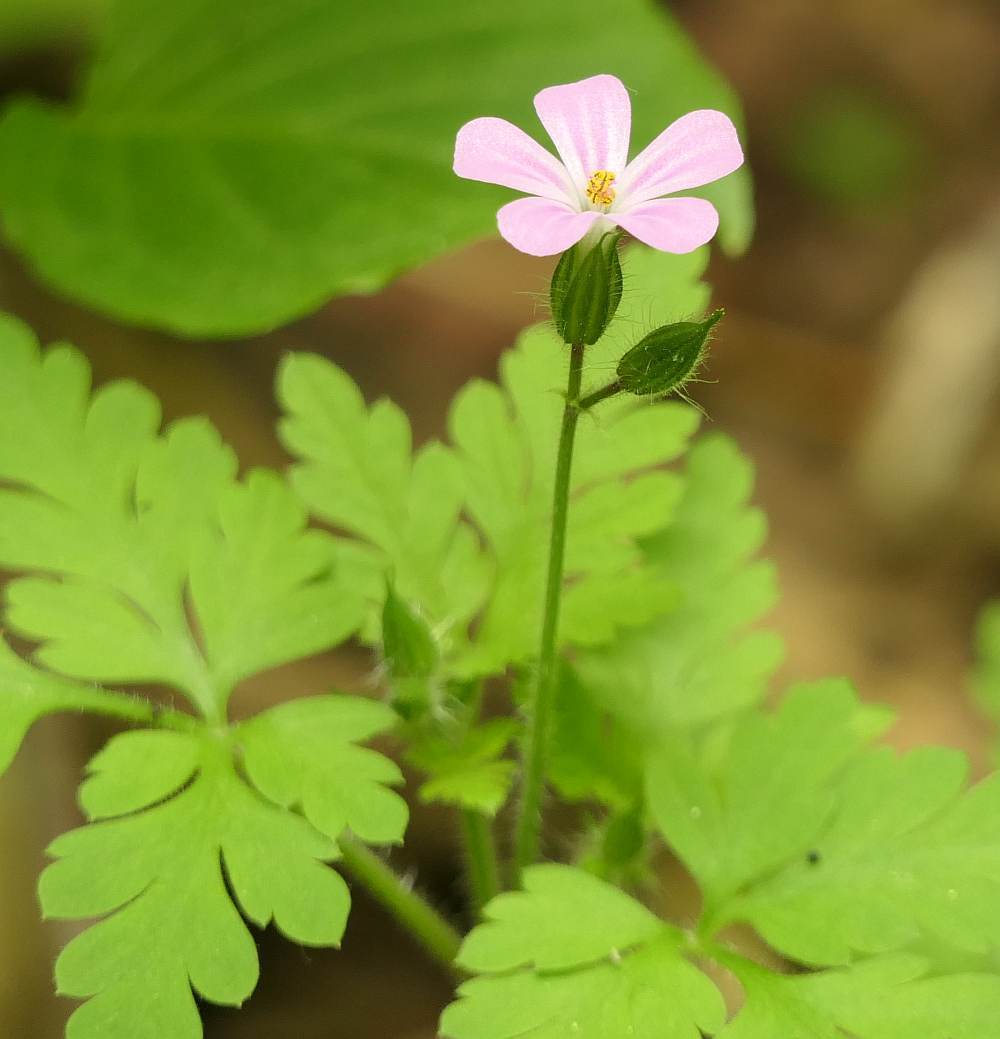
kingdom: Plantae
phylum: Tracheophyta
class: Magnoliopsida
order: Geraniales
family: Geraniaceae
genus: Geranium
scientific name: Geranium robertianum
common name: Herb-robert
